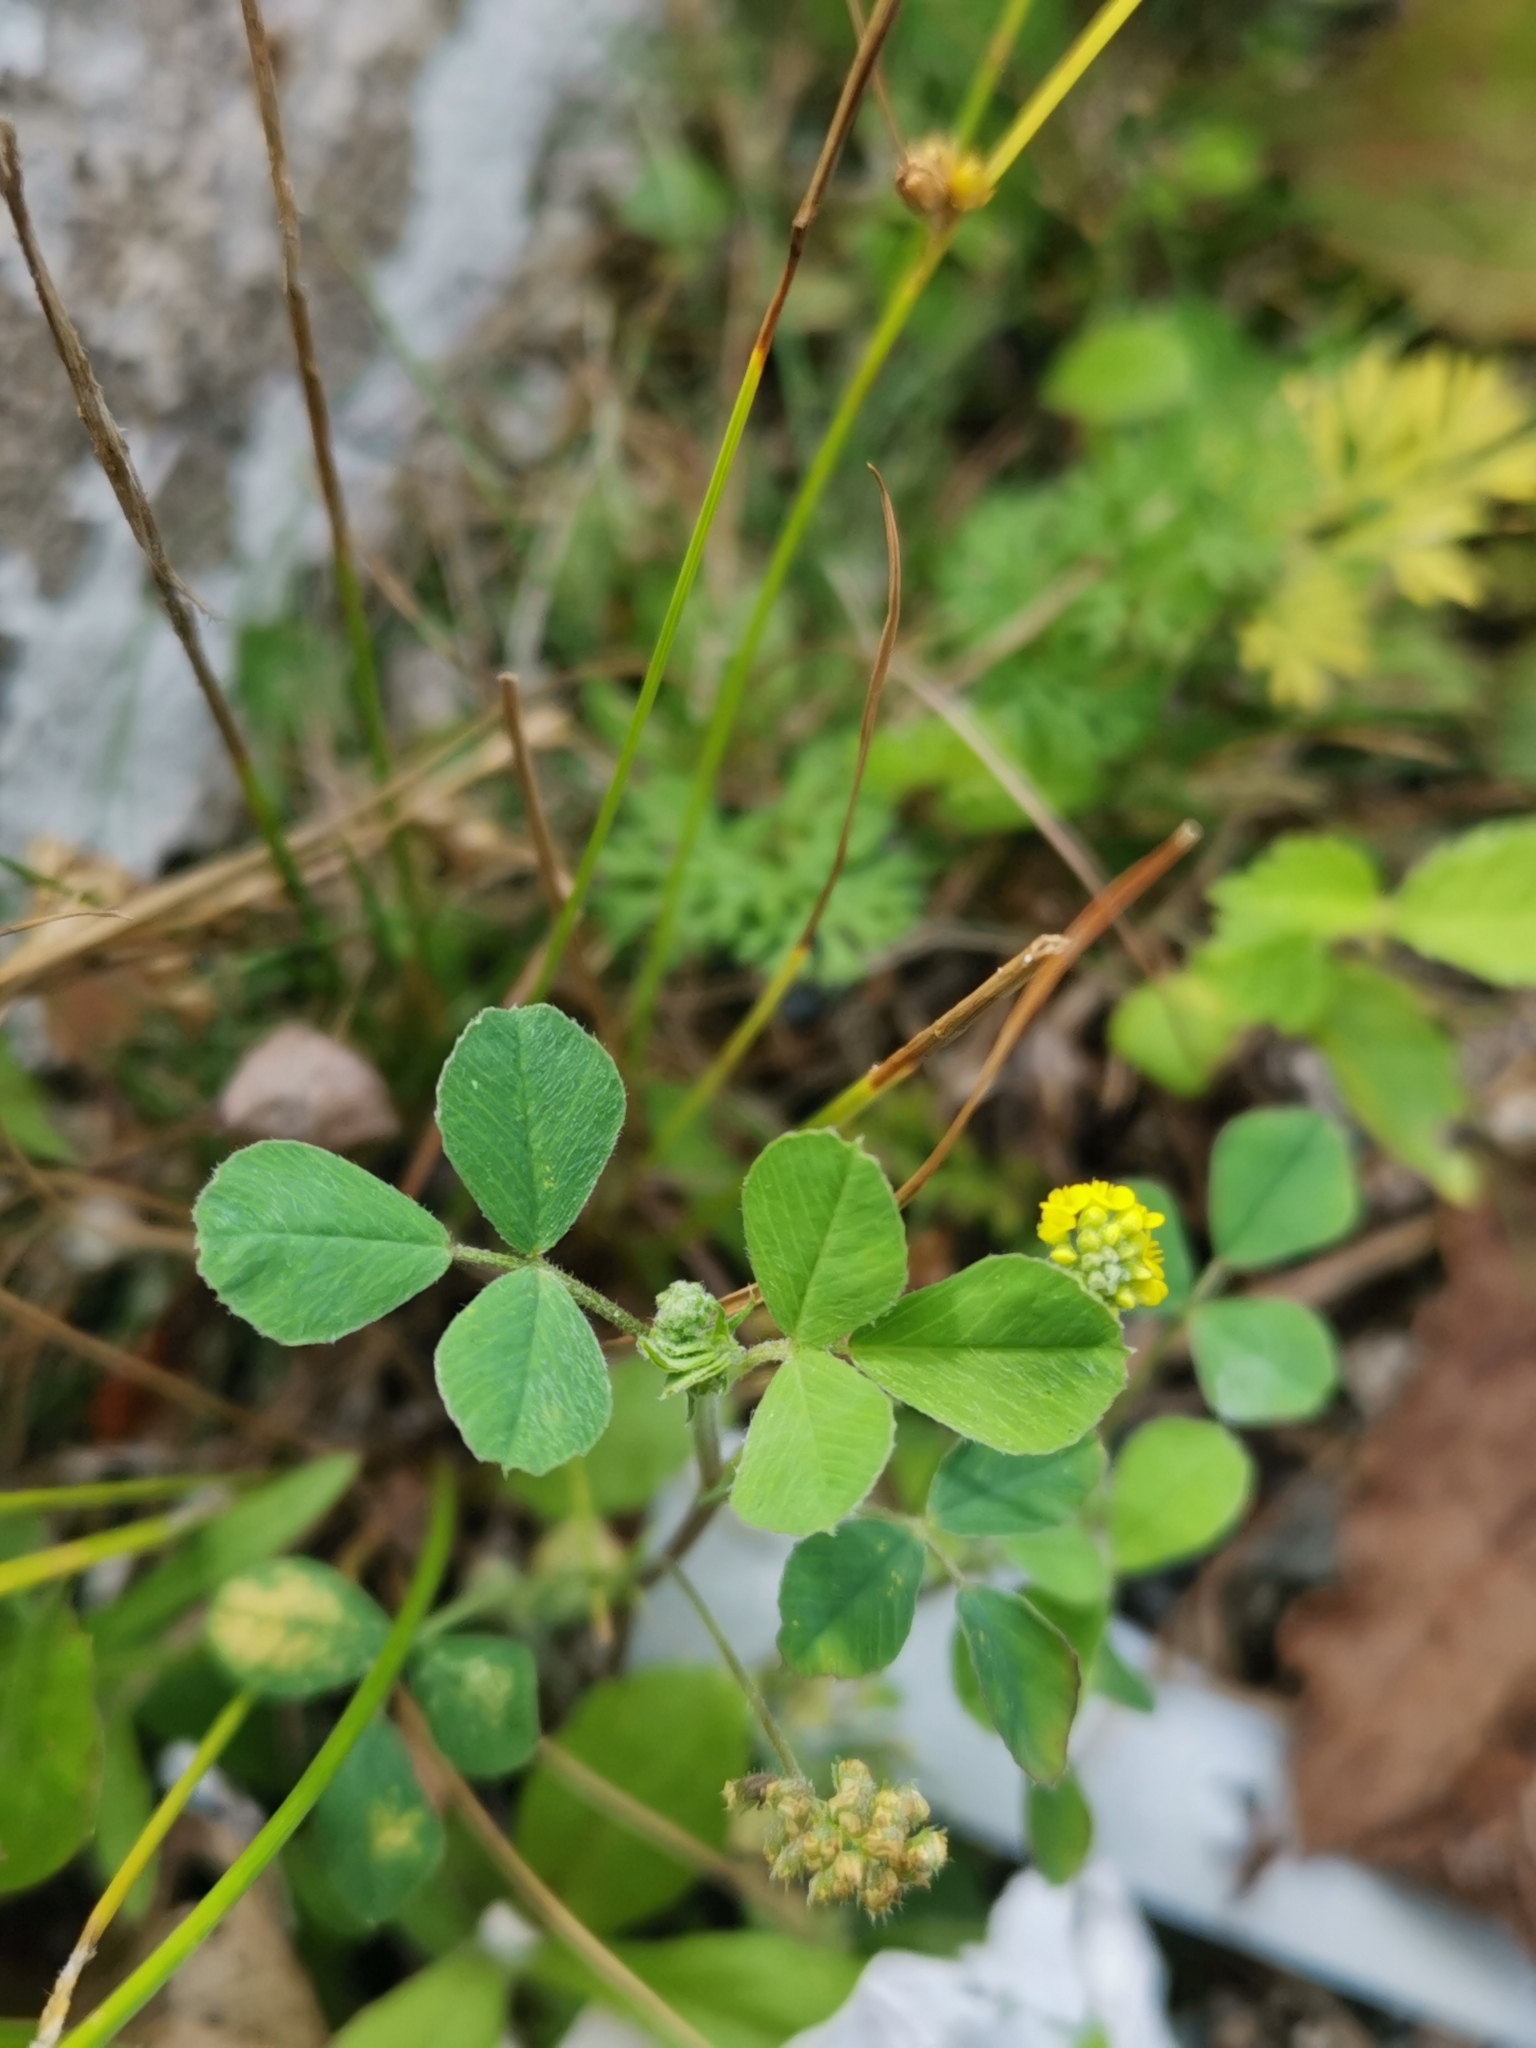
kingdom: Plantae
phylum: Tracheophyta
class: Magnoliopsida
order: Fabales
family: Fabaceae
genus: Medicago
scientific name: Medicago lupulina
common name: Black medick
